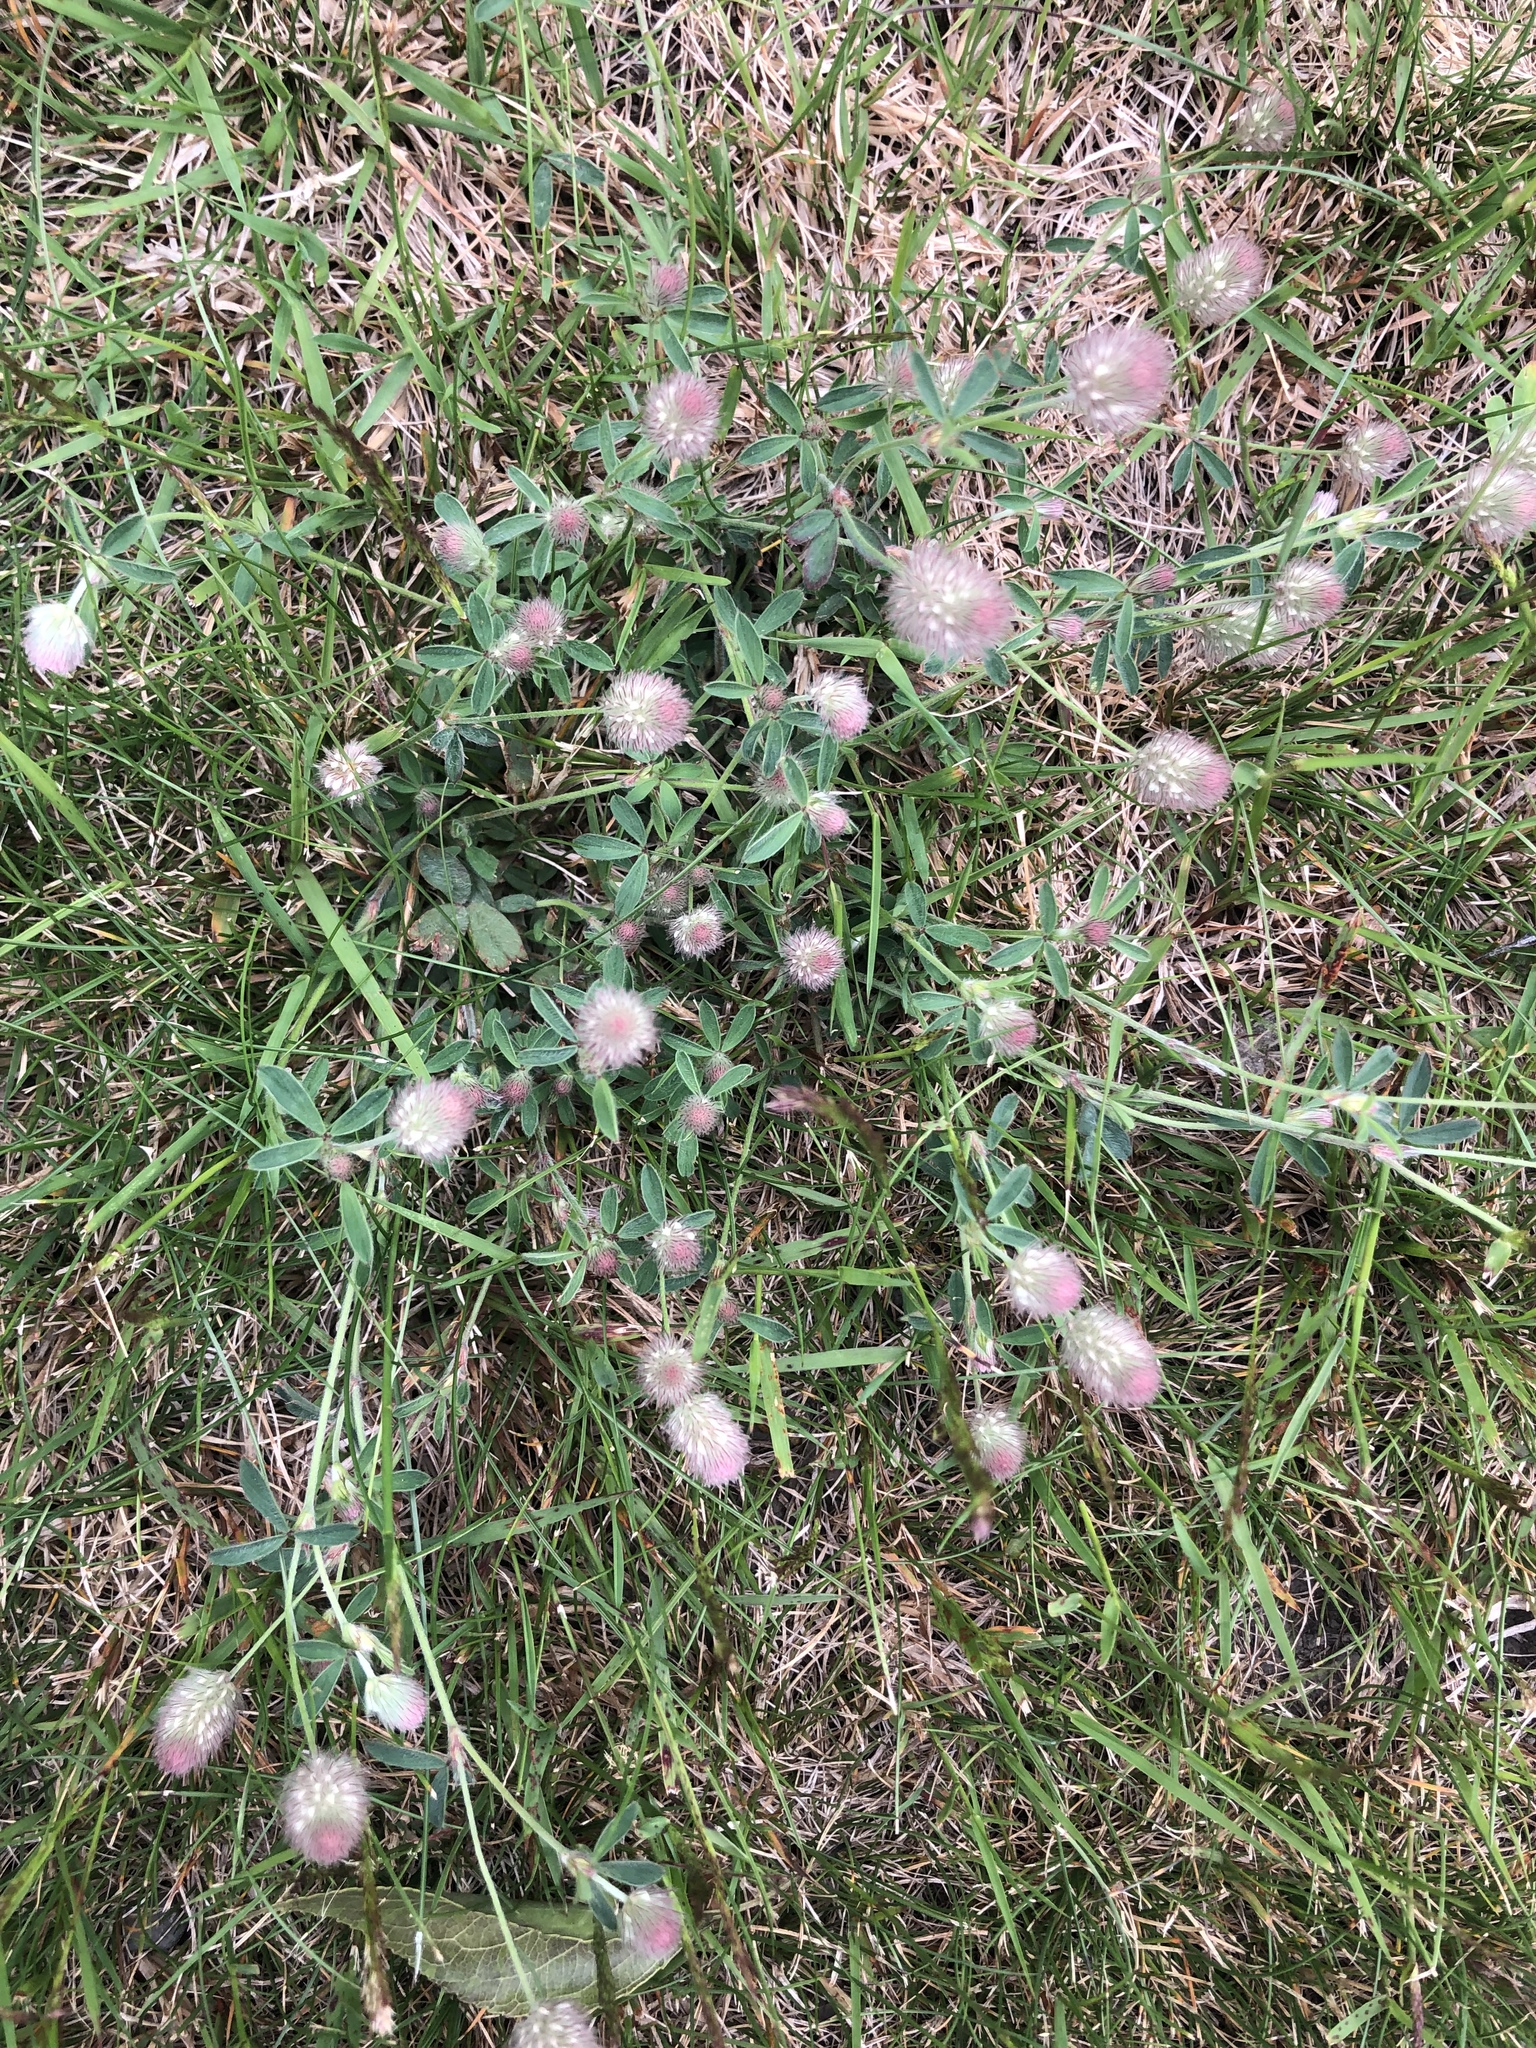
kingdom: Plantae
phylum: Tracheophyta
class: Magnoliopsida
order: Fabales
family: Fabaceae
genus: Trifolium
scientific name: Trifolium arvense
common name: Hare's-foot clover
